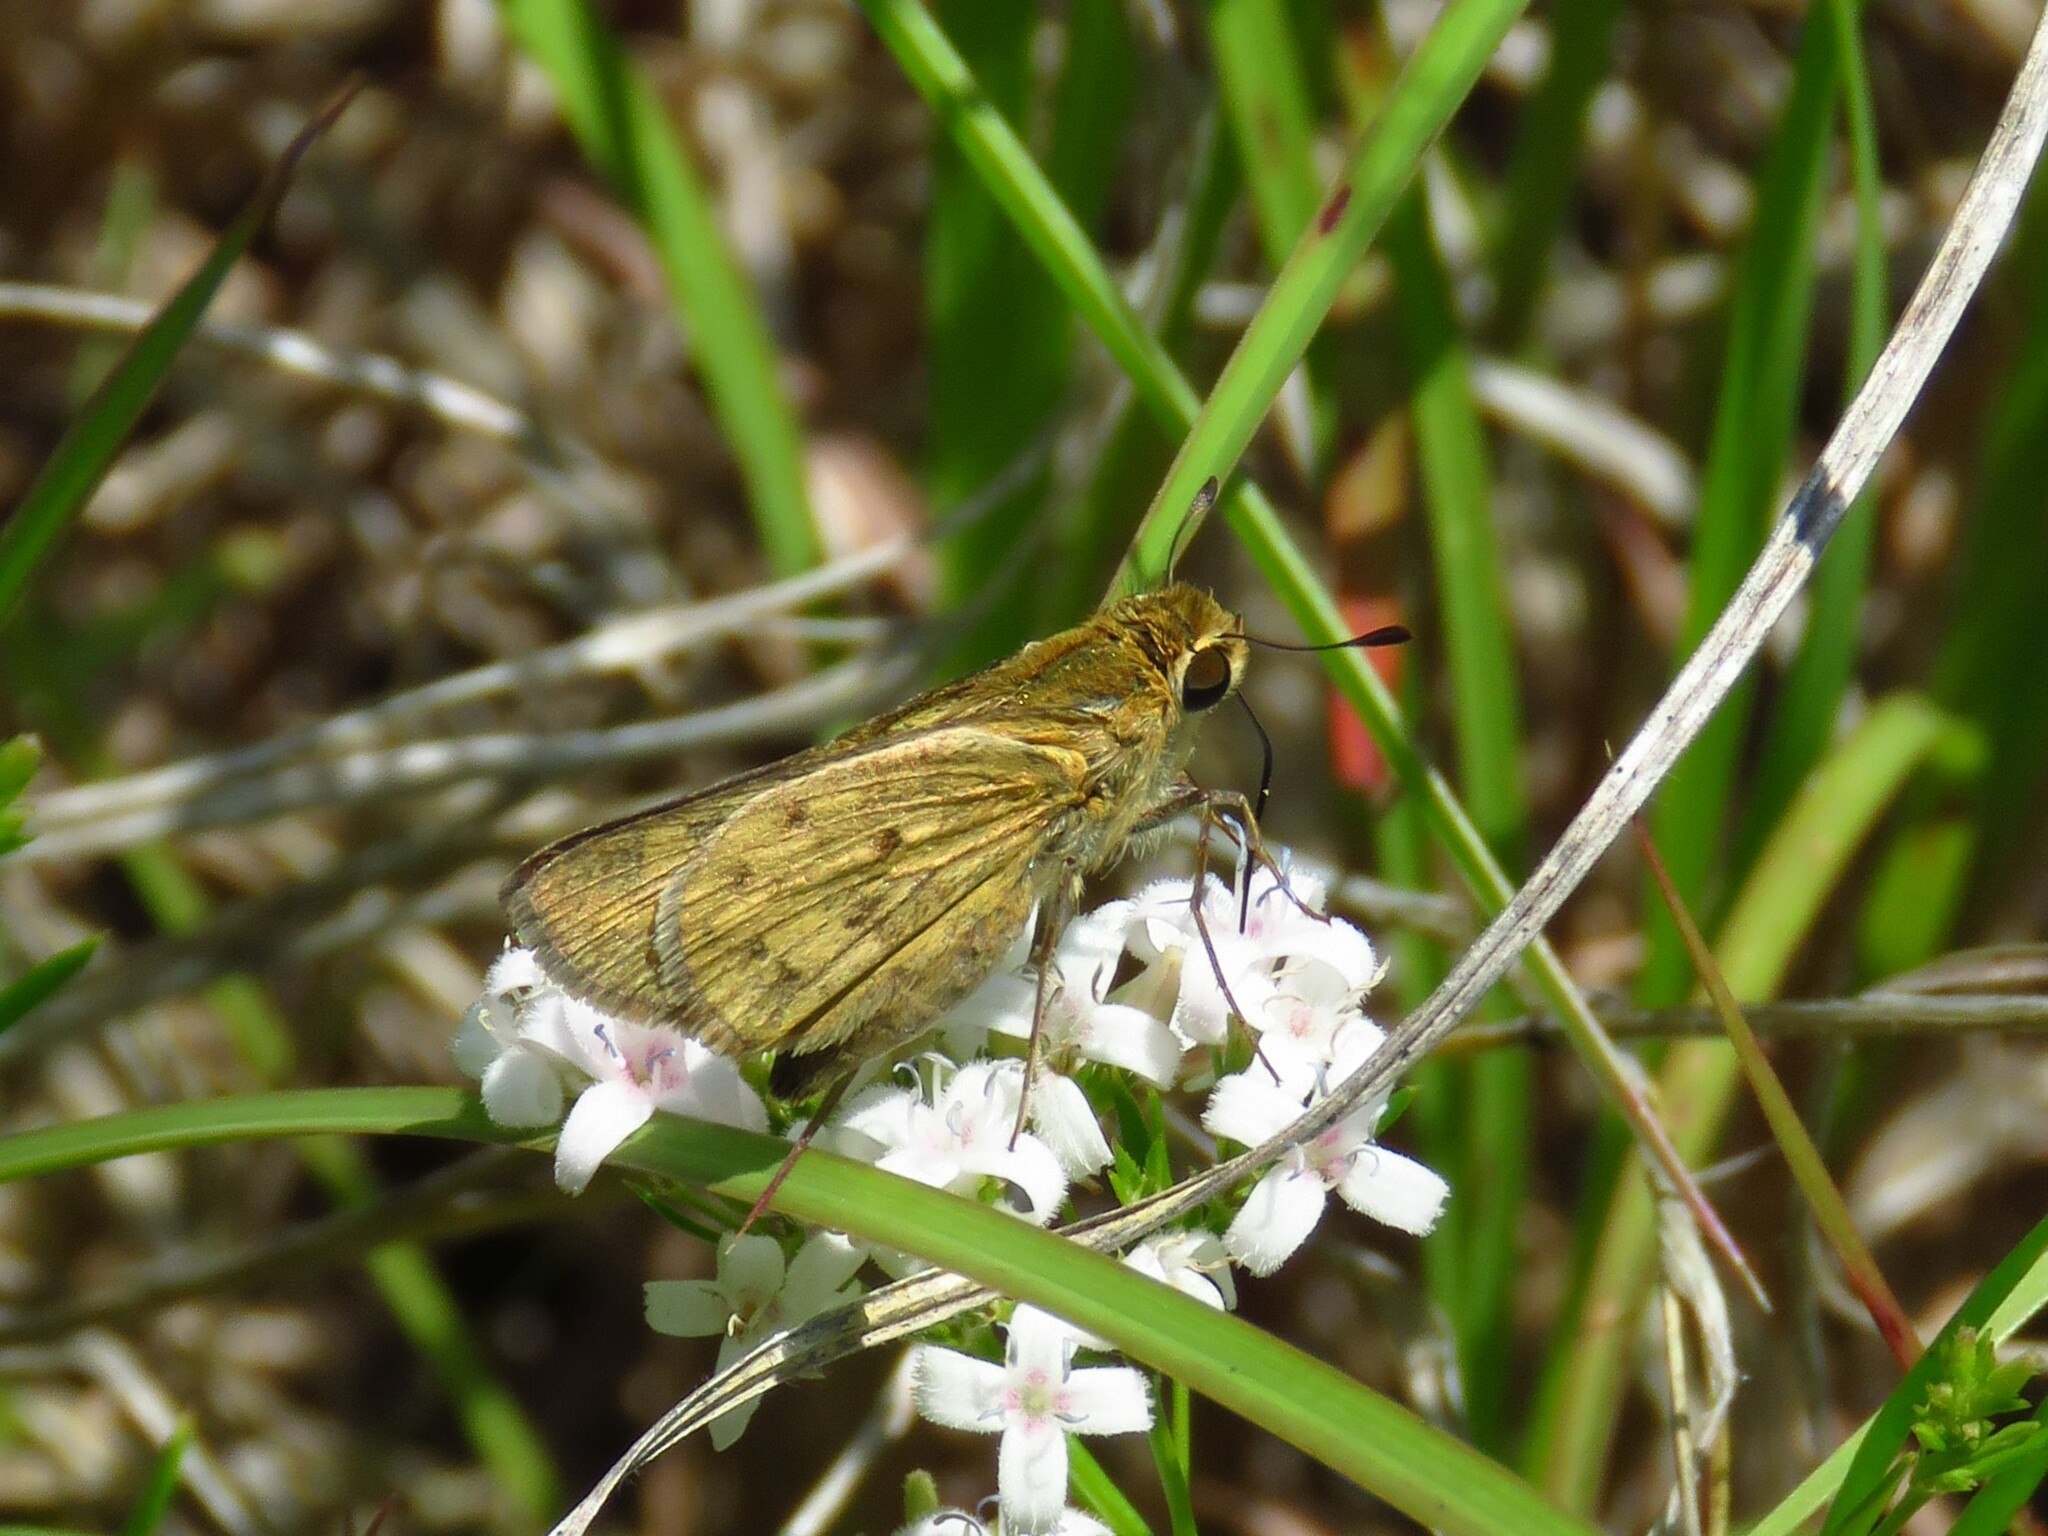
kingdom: Animalia
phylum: Arthropoda
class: Insecta
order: Lepidoptera
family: Hesperiidae
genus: Hylephila
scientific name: Hylephila phyleus
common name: Fiery skipper
